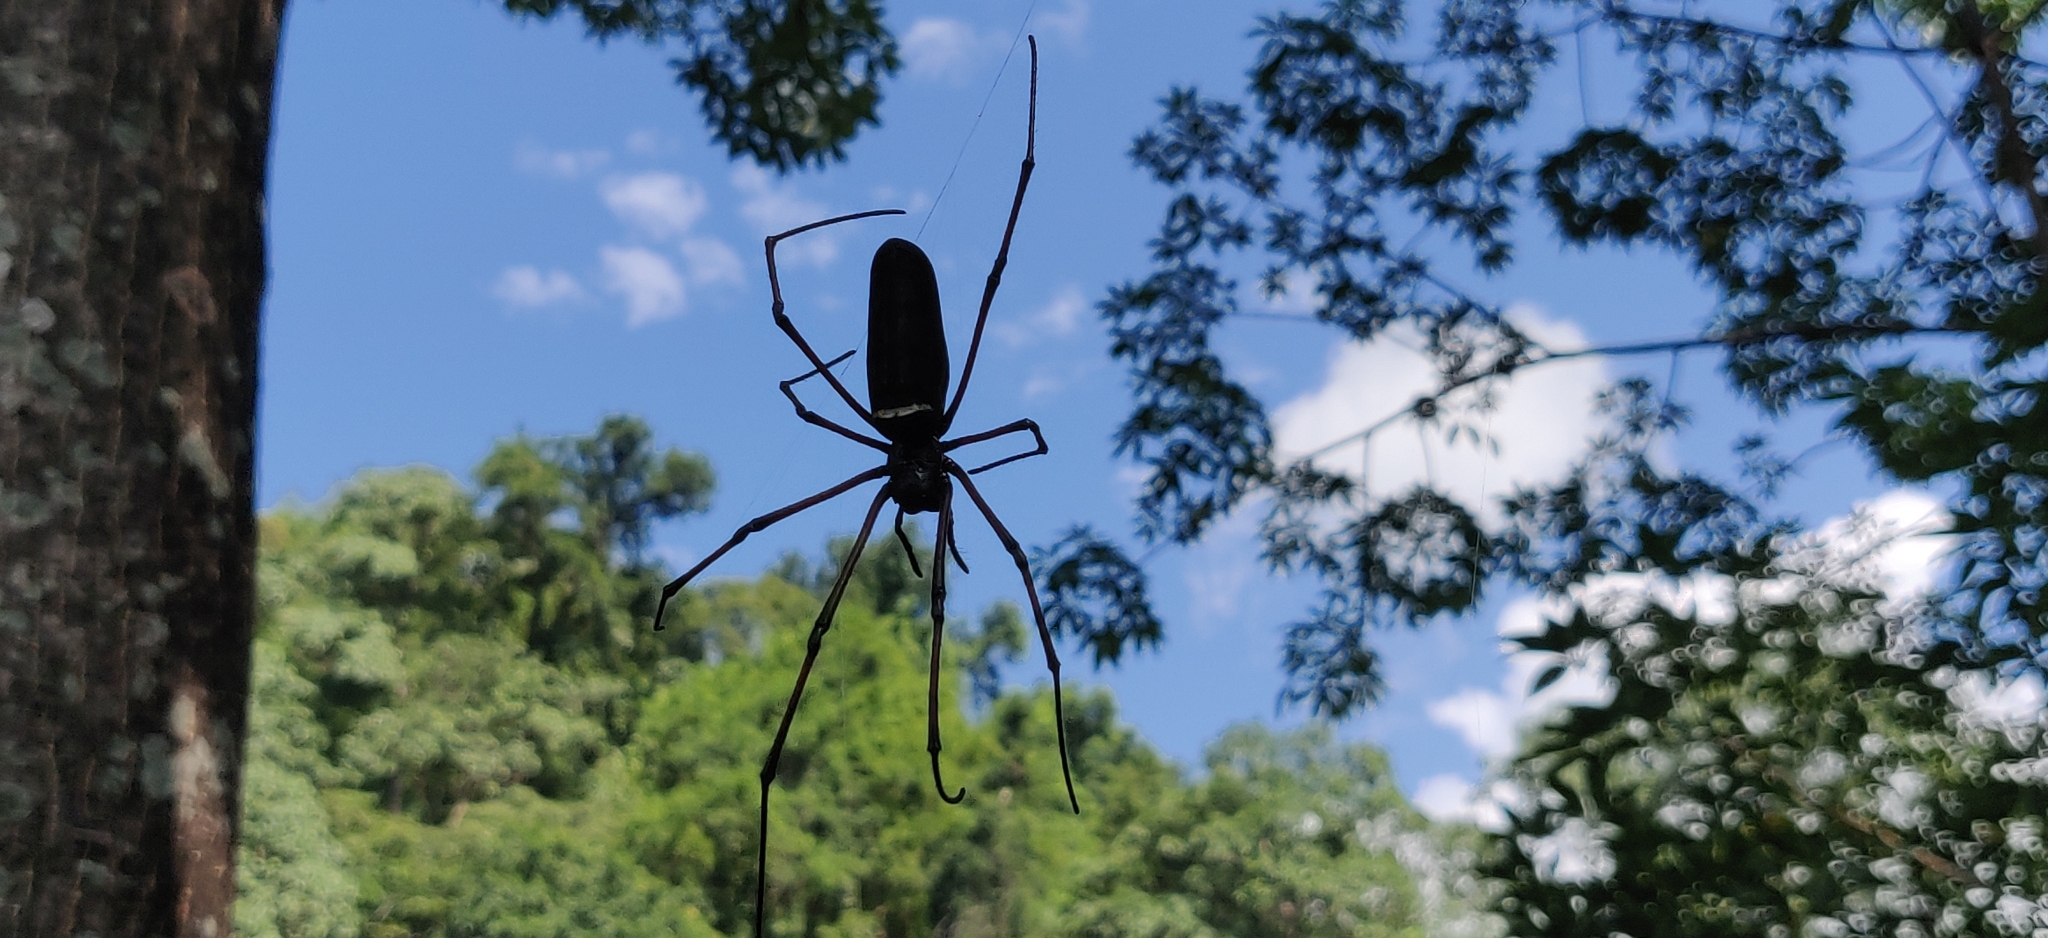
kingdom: Animalia
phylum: Arthropoda
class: Arachnida
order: Araneae
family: Araneidae
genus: Nephila
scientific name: Nephila kuhli
